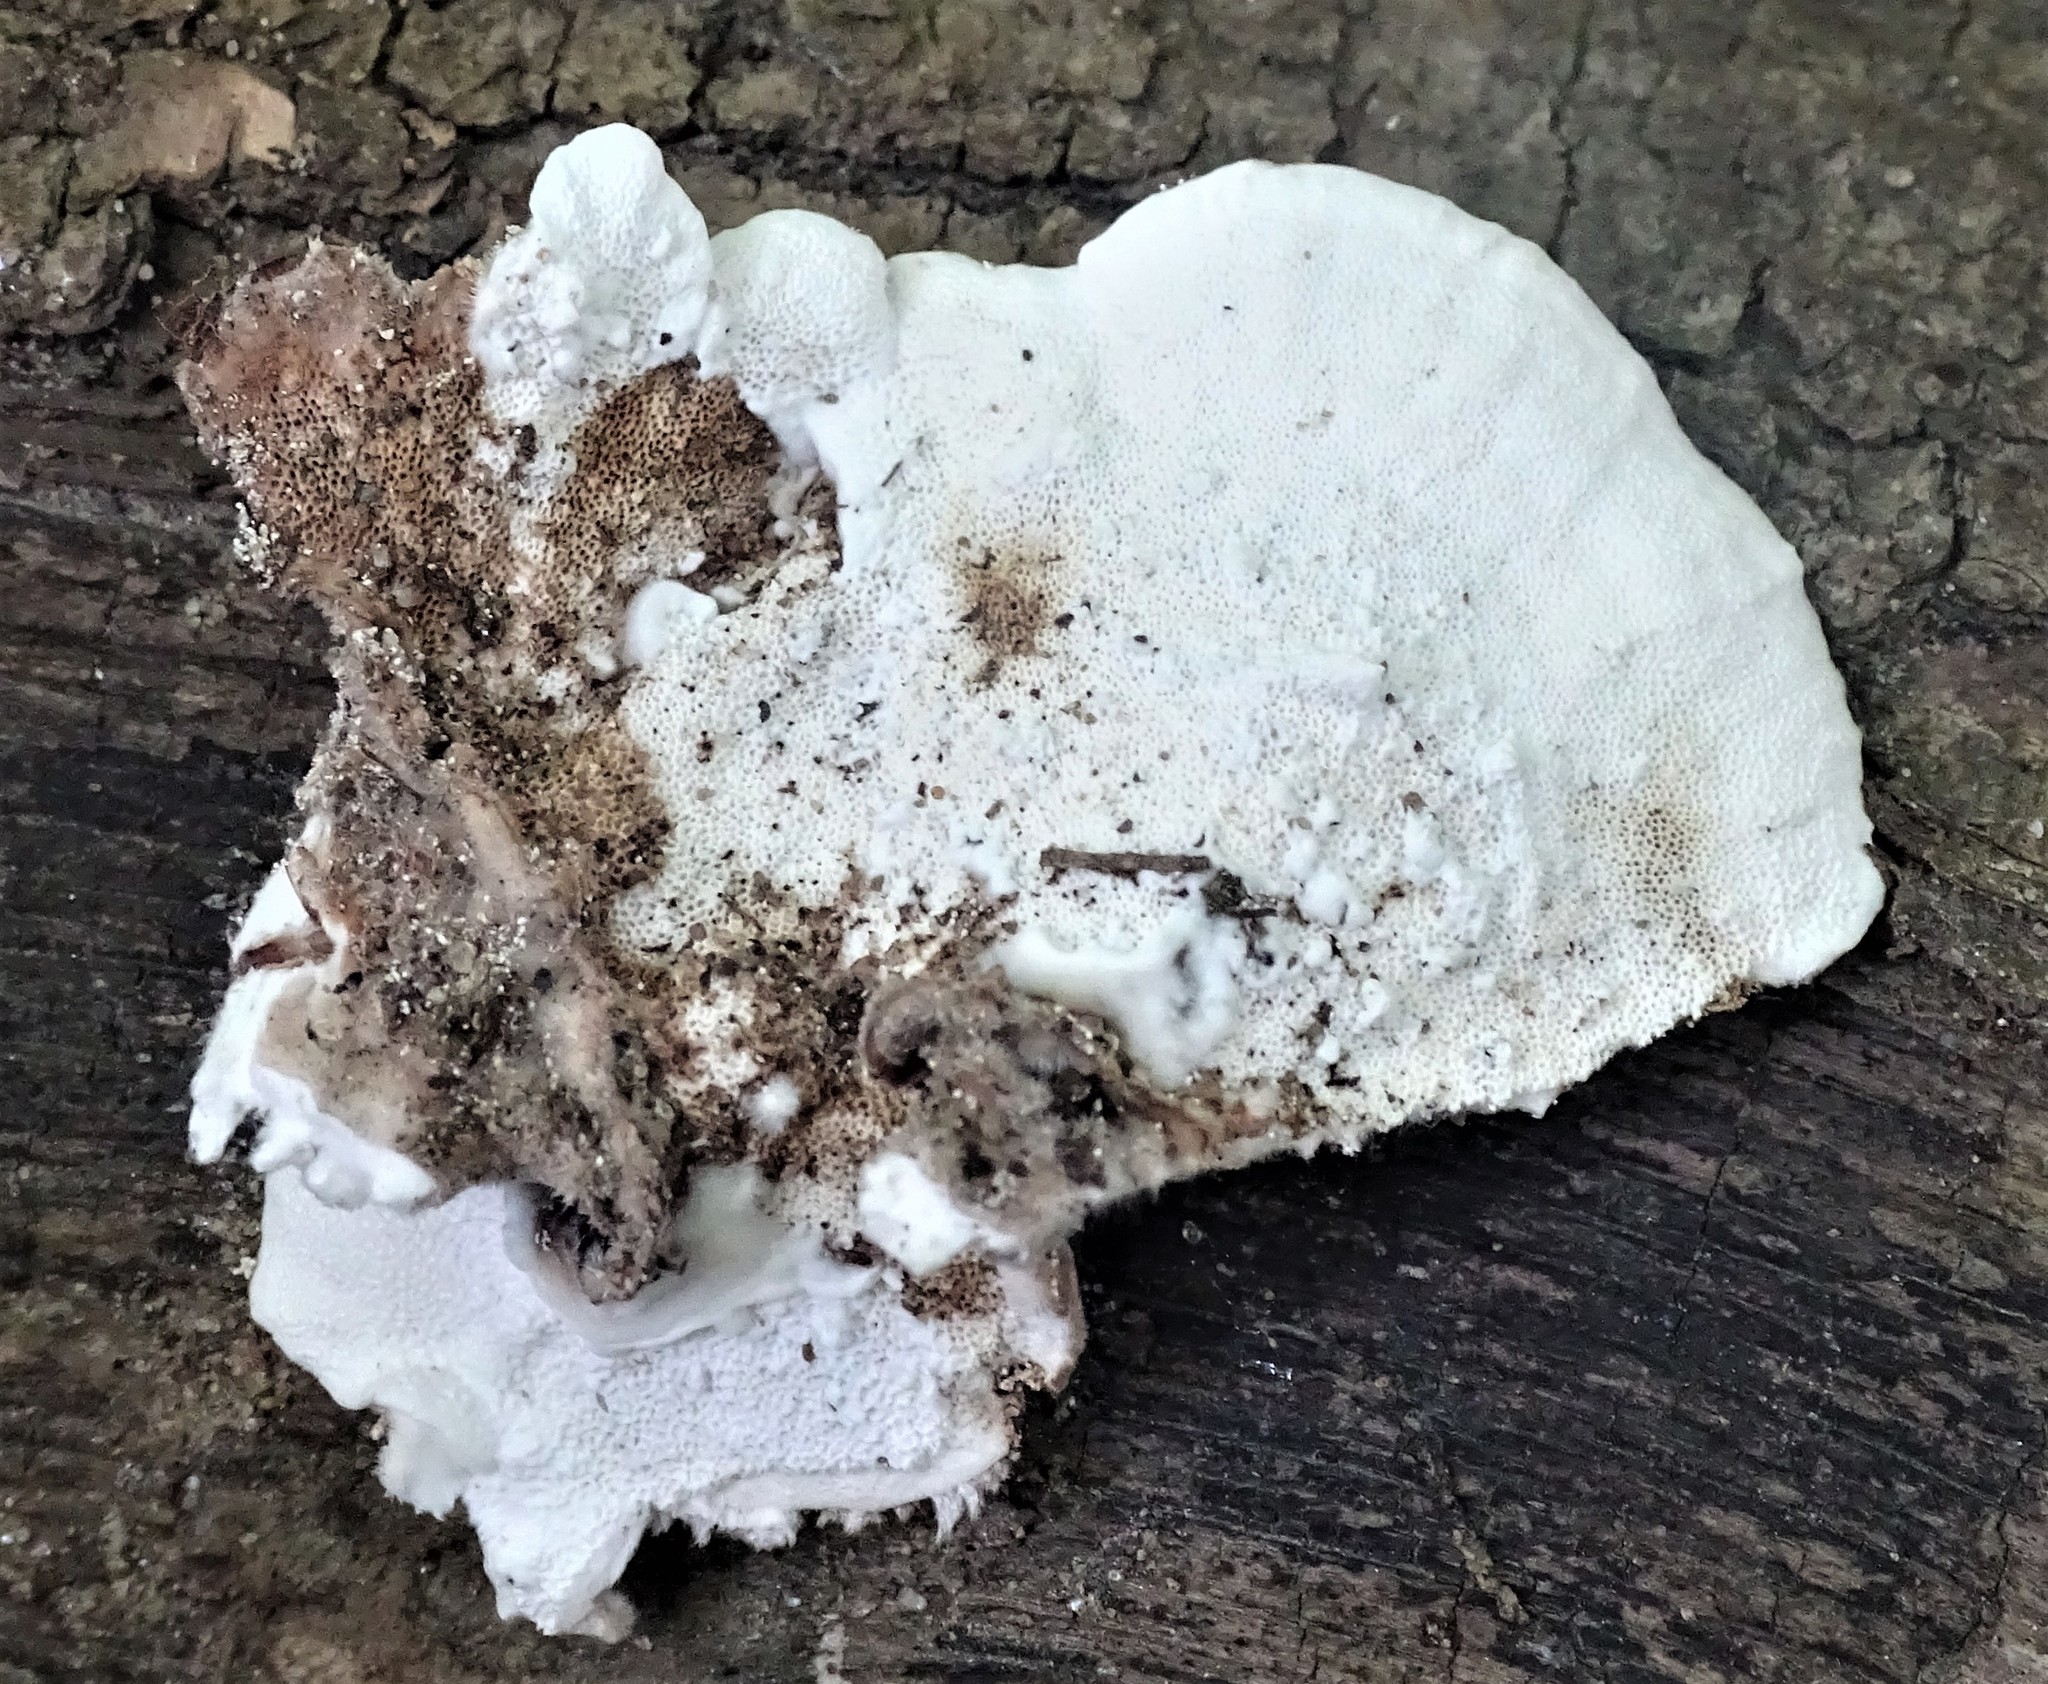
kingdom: Fungi
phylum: Basidiomycota
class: Agaricomycetes
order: Polyporales
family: Polyporaceae
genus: Trametes
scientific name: Trametes versicolor
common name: Turkeytail
